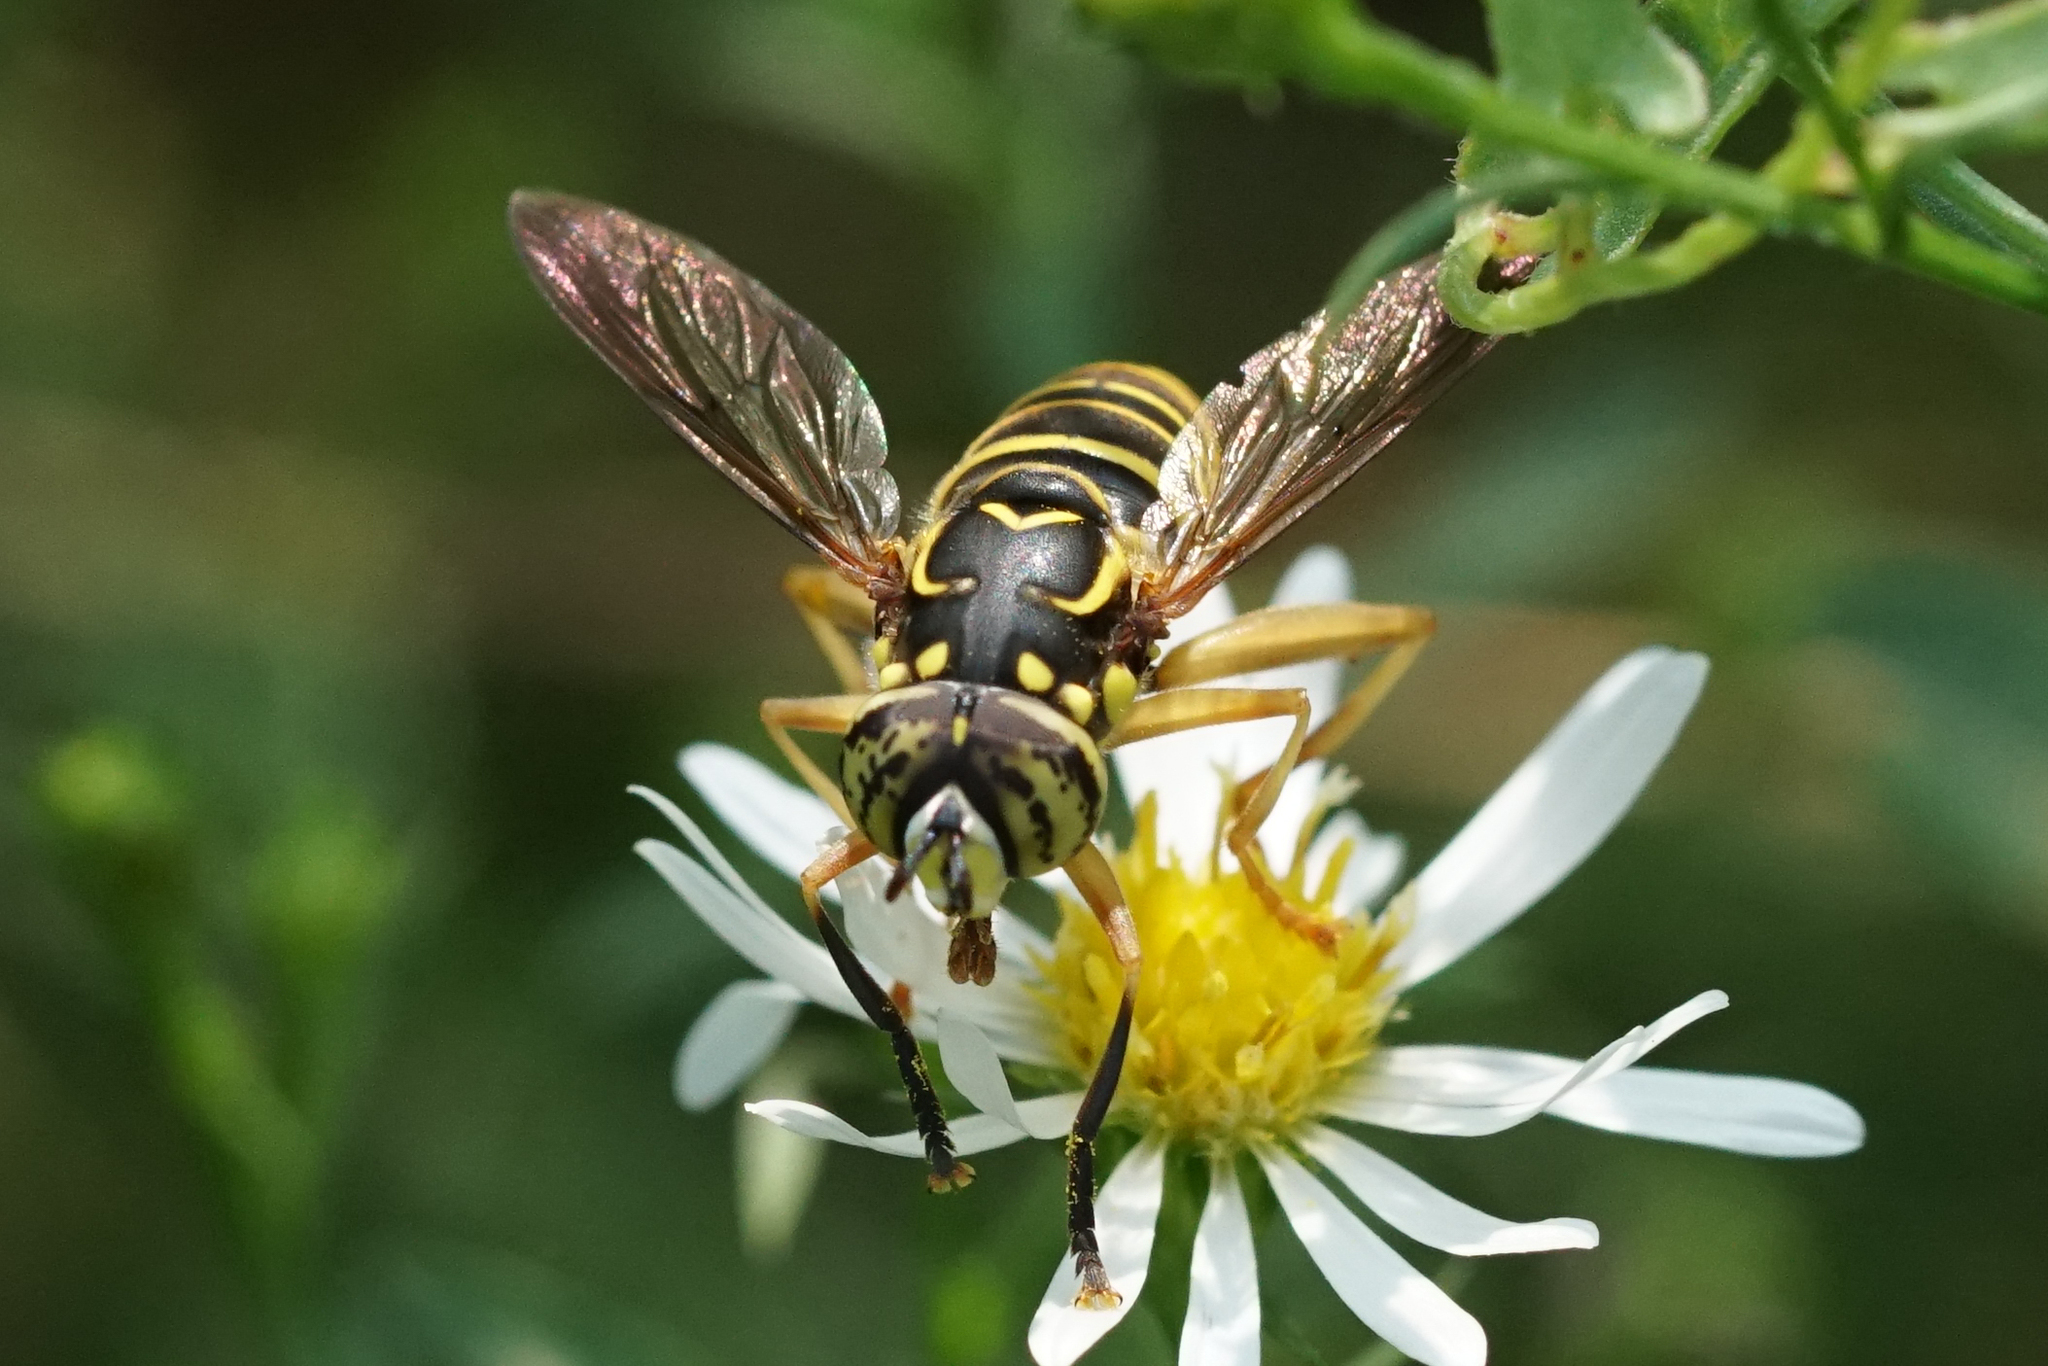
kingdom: Animalia
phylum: Arthropoda
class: Insecta
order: Diptera
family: Syrphidae
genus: Spilomyia
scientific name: Spilomyia longicornis
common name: Eastern hornet fly
